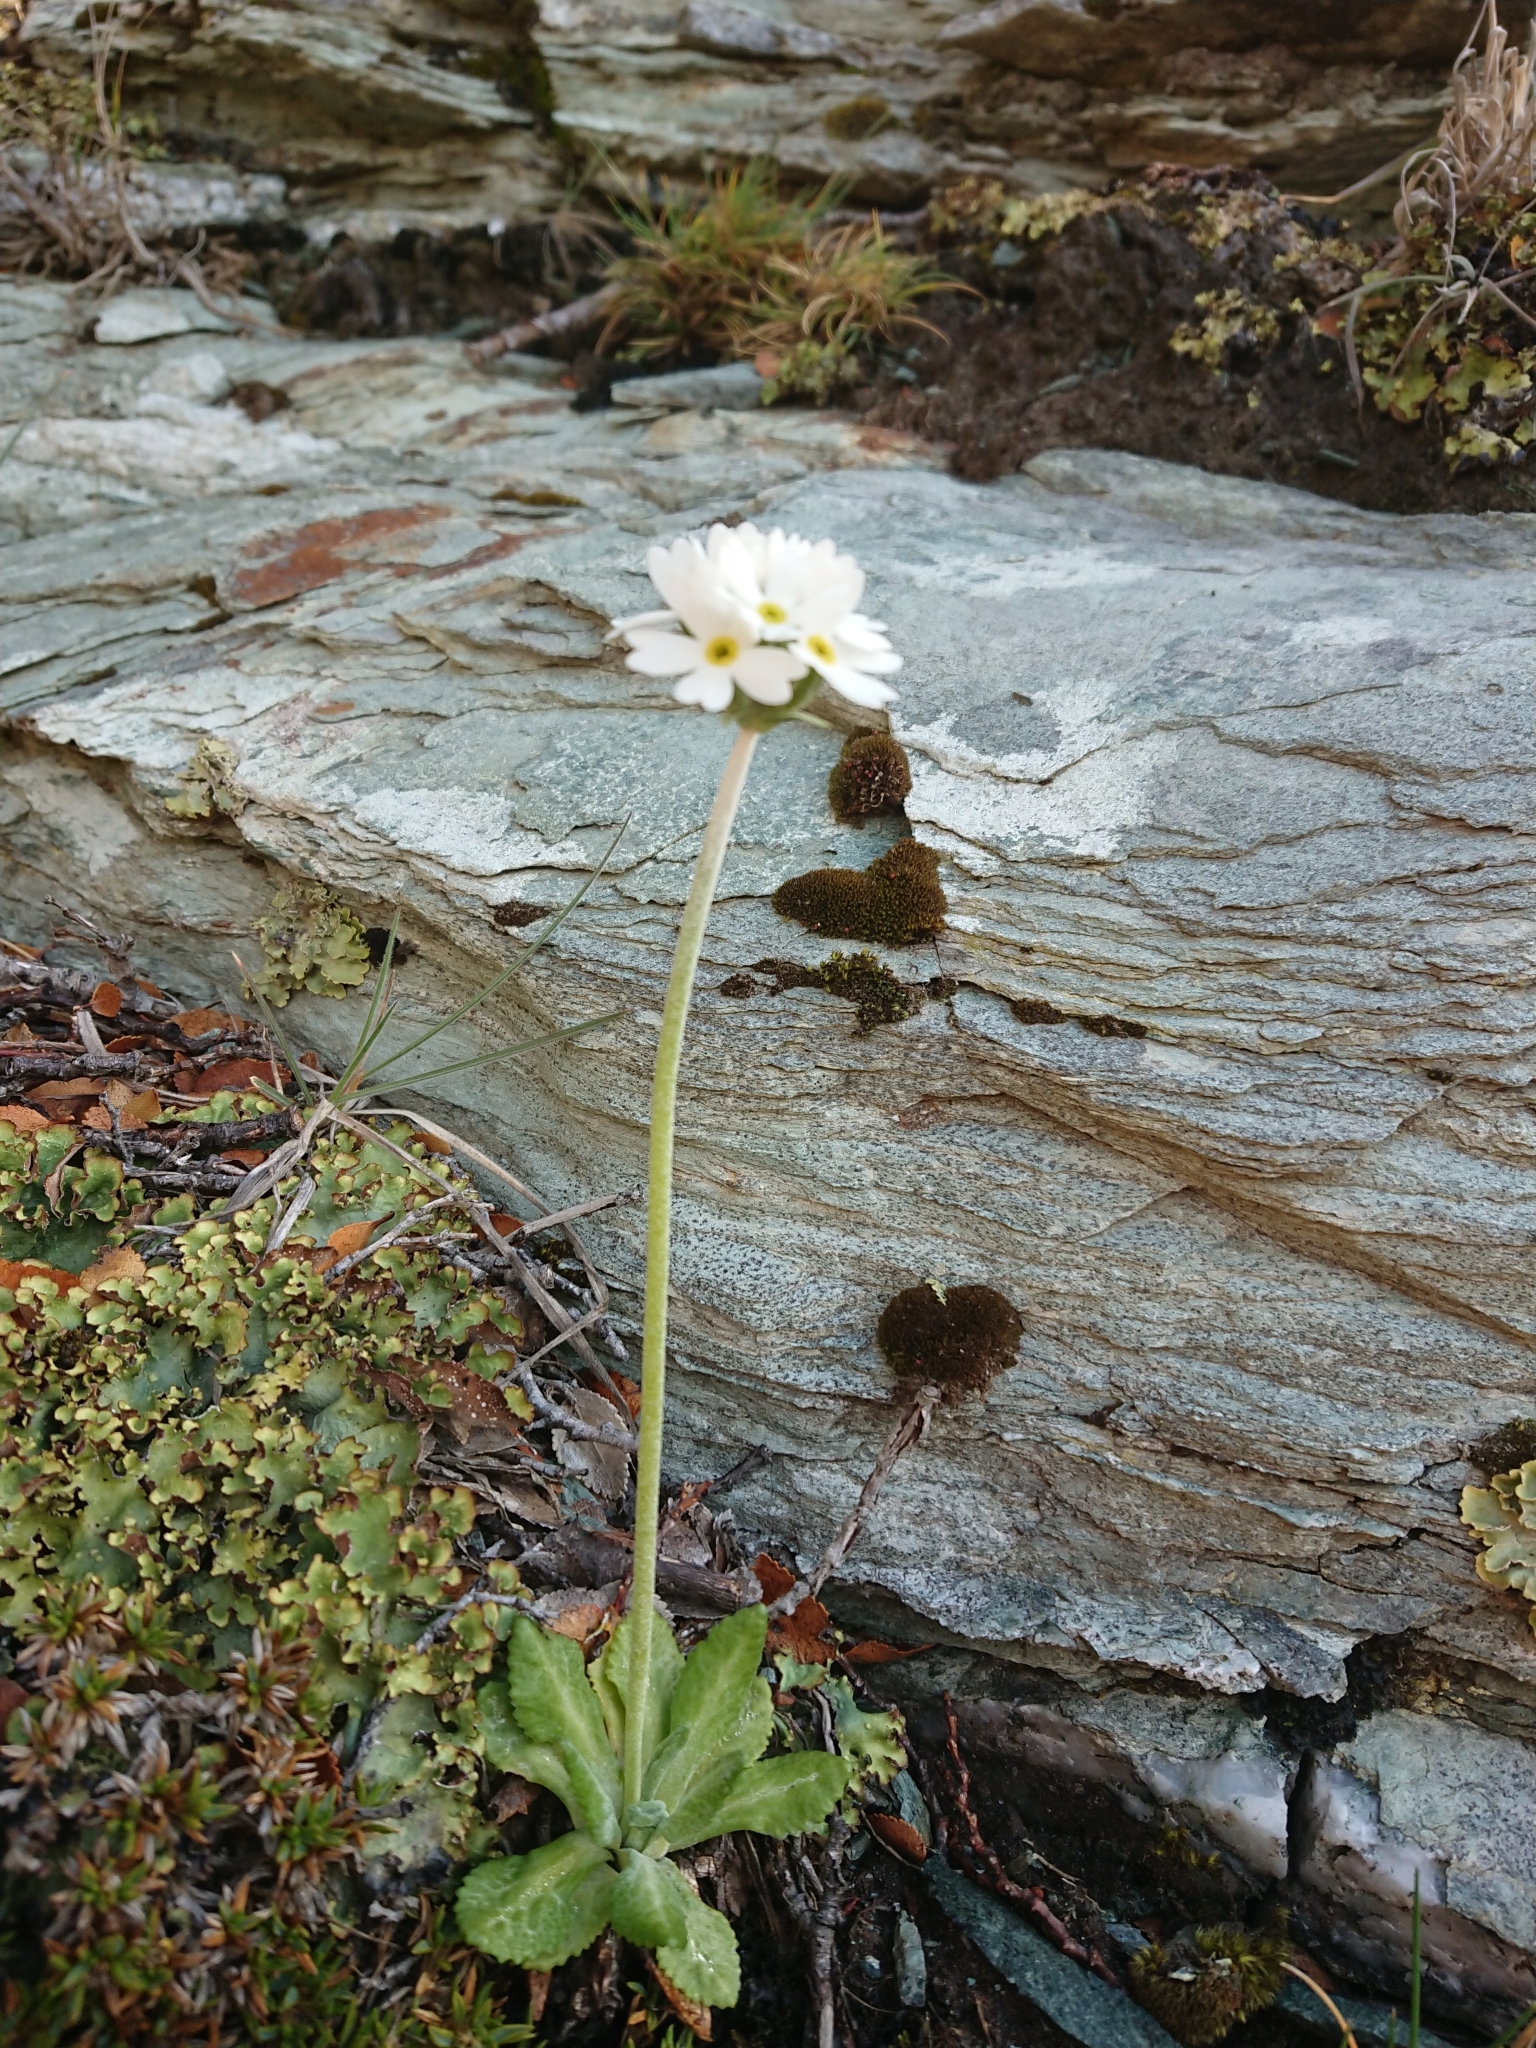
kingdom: Plantae
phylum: Tracheophyta
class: Magnoliopsida
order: Ericales
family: Primulaceae
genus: Primula
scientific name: Primula magellanica
